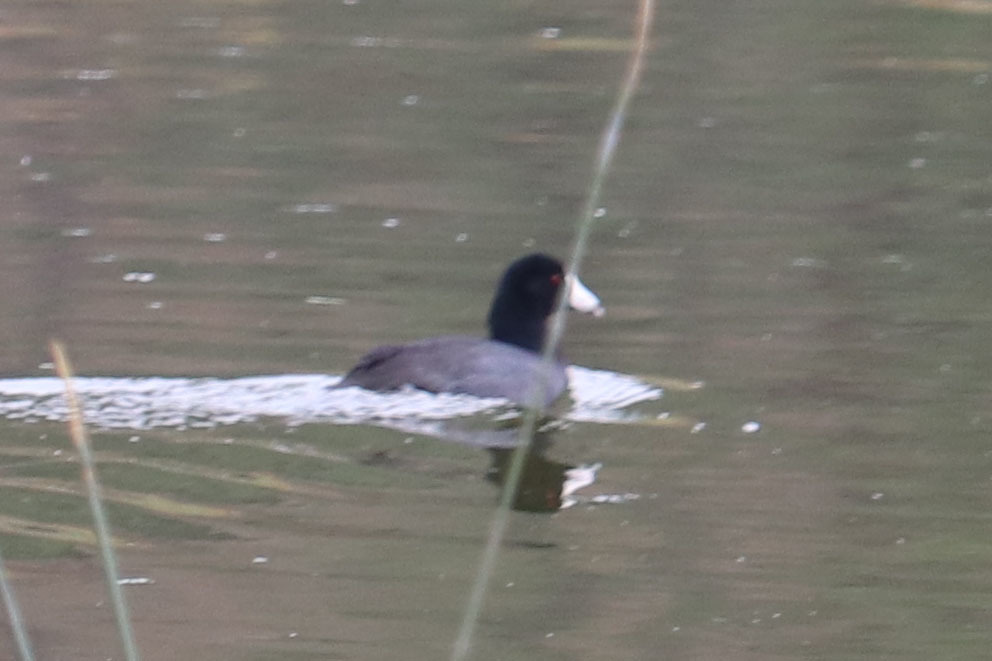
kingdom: Animalia
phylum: Chordata
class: Aves
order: Gruiformes
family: Rallidae
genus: Fulica
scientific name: Fulica americana
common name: American coot
